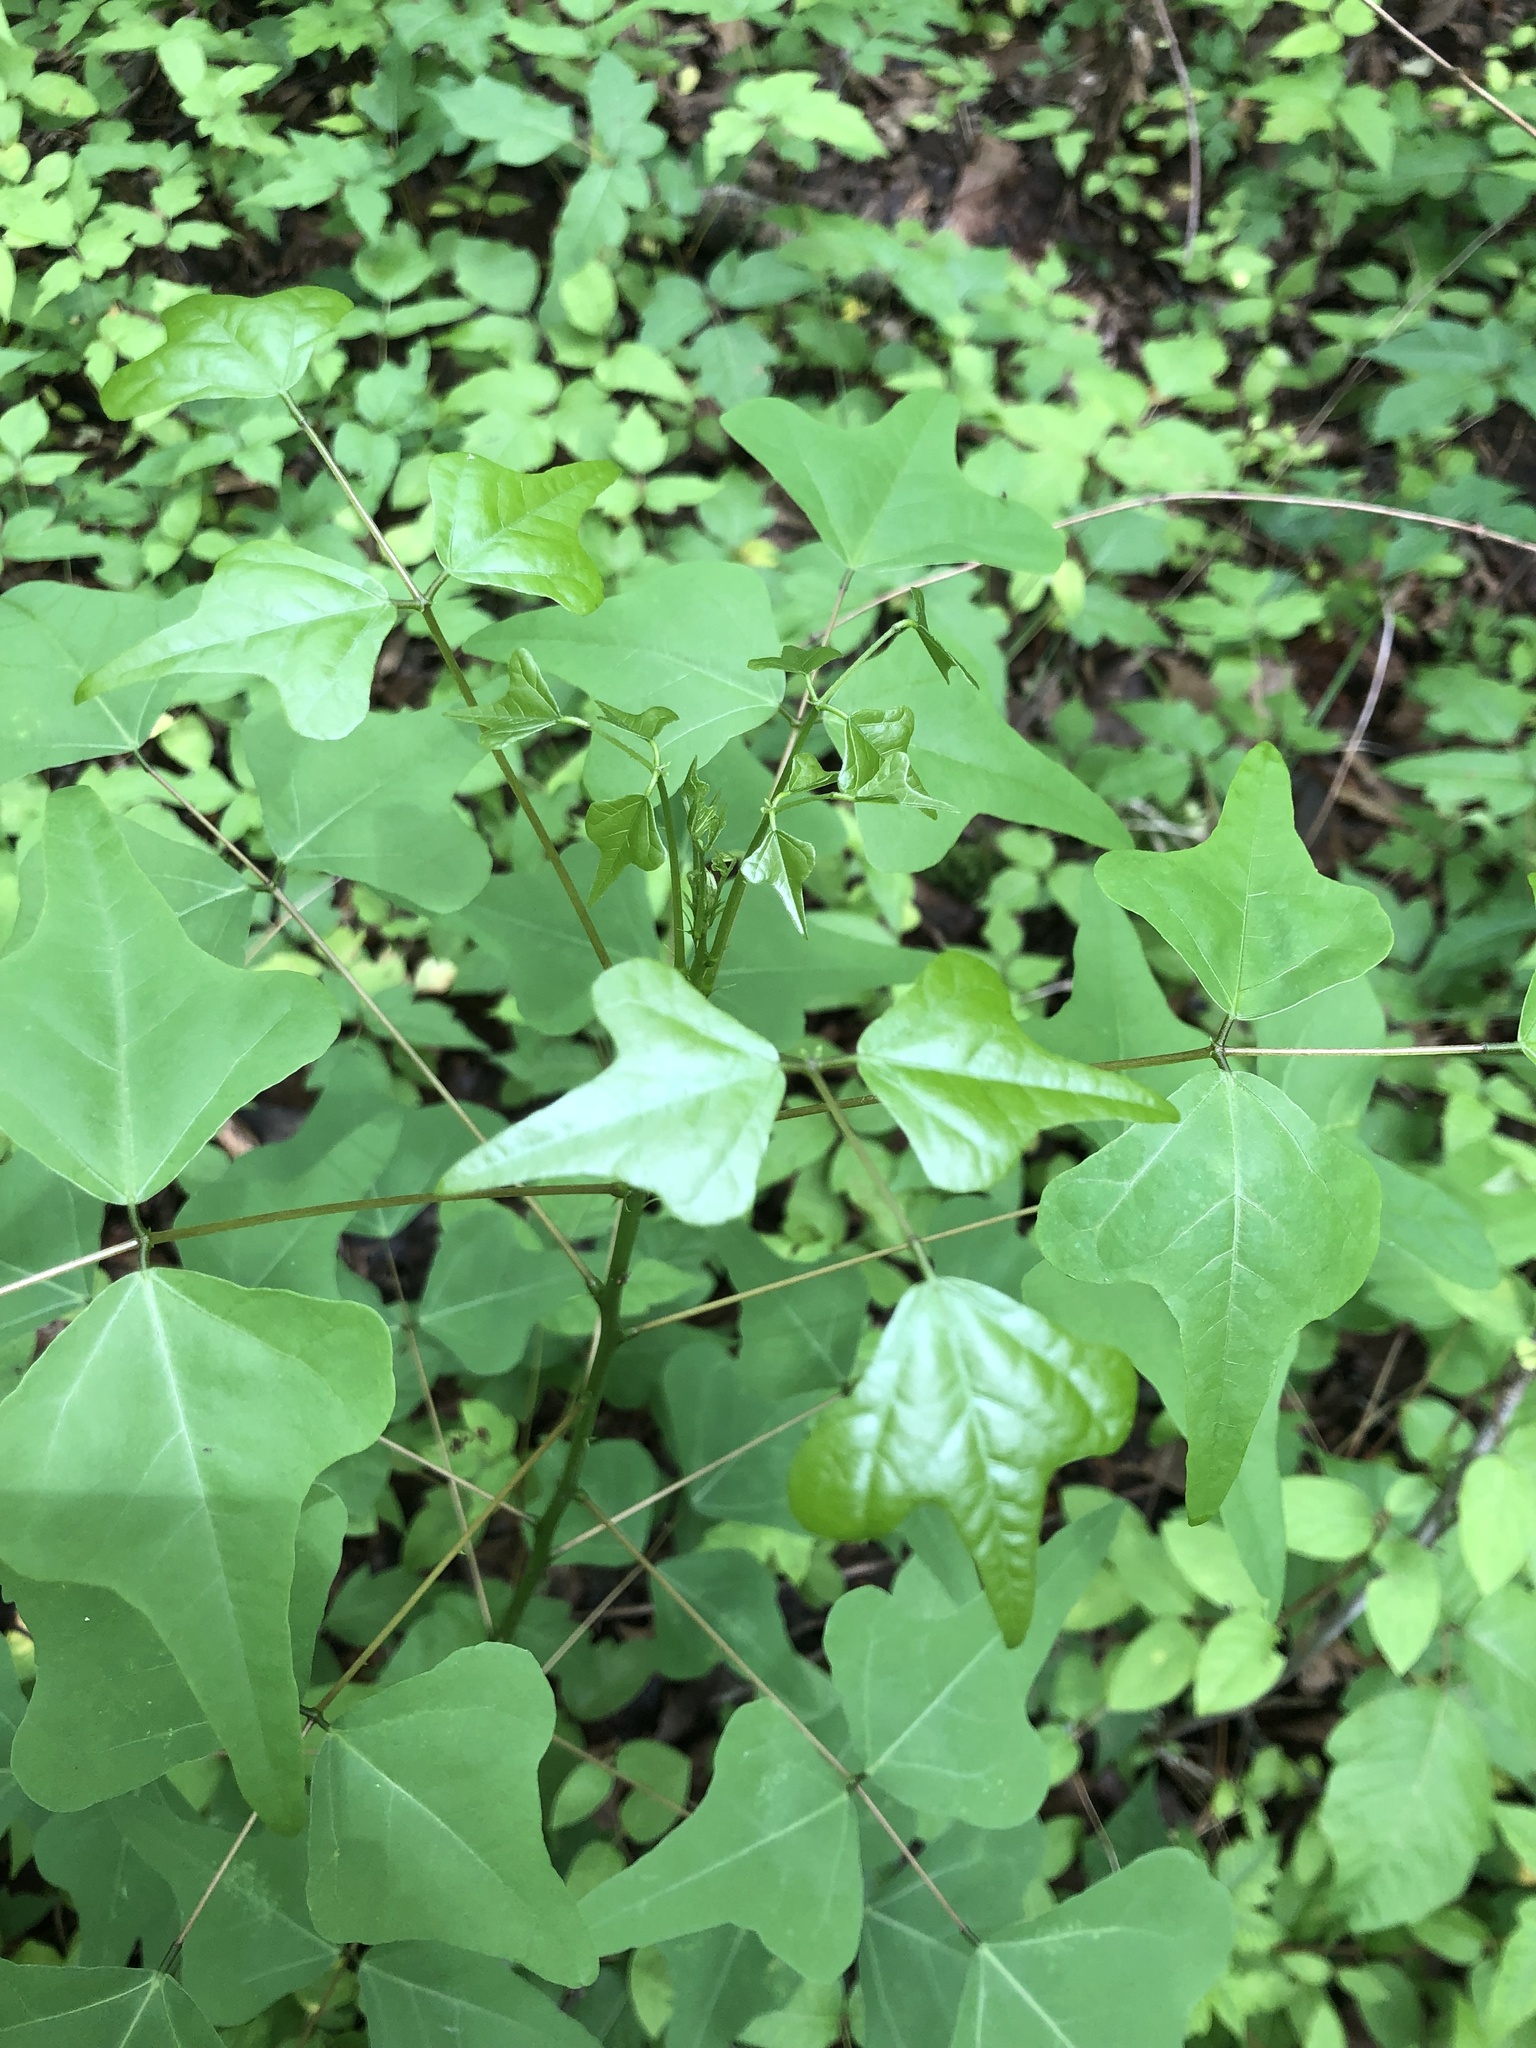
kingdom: Plantae
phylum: Tracheophyta
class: Magnoliopsida
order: Fabales
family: Fabaceae
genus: Erythrina
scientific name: Erythrina herbacea
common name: Coral-bean
